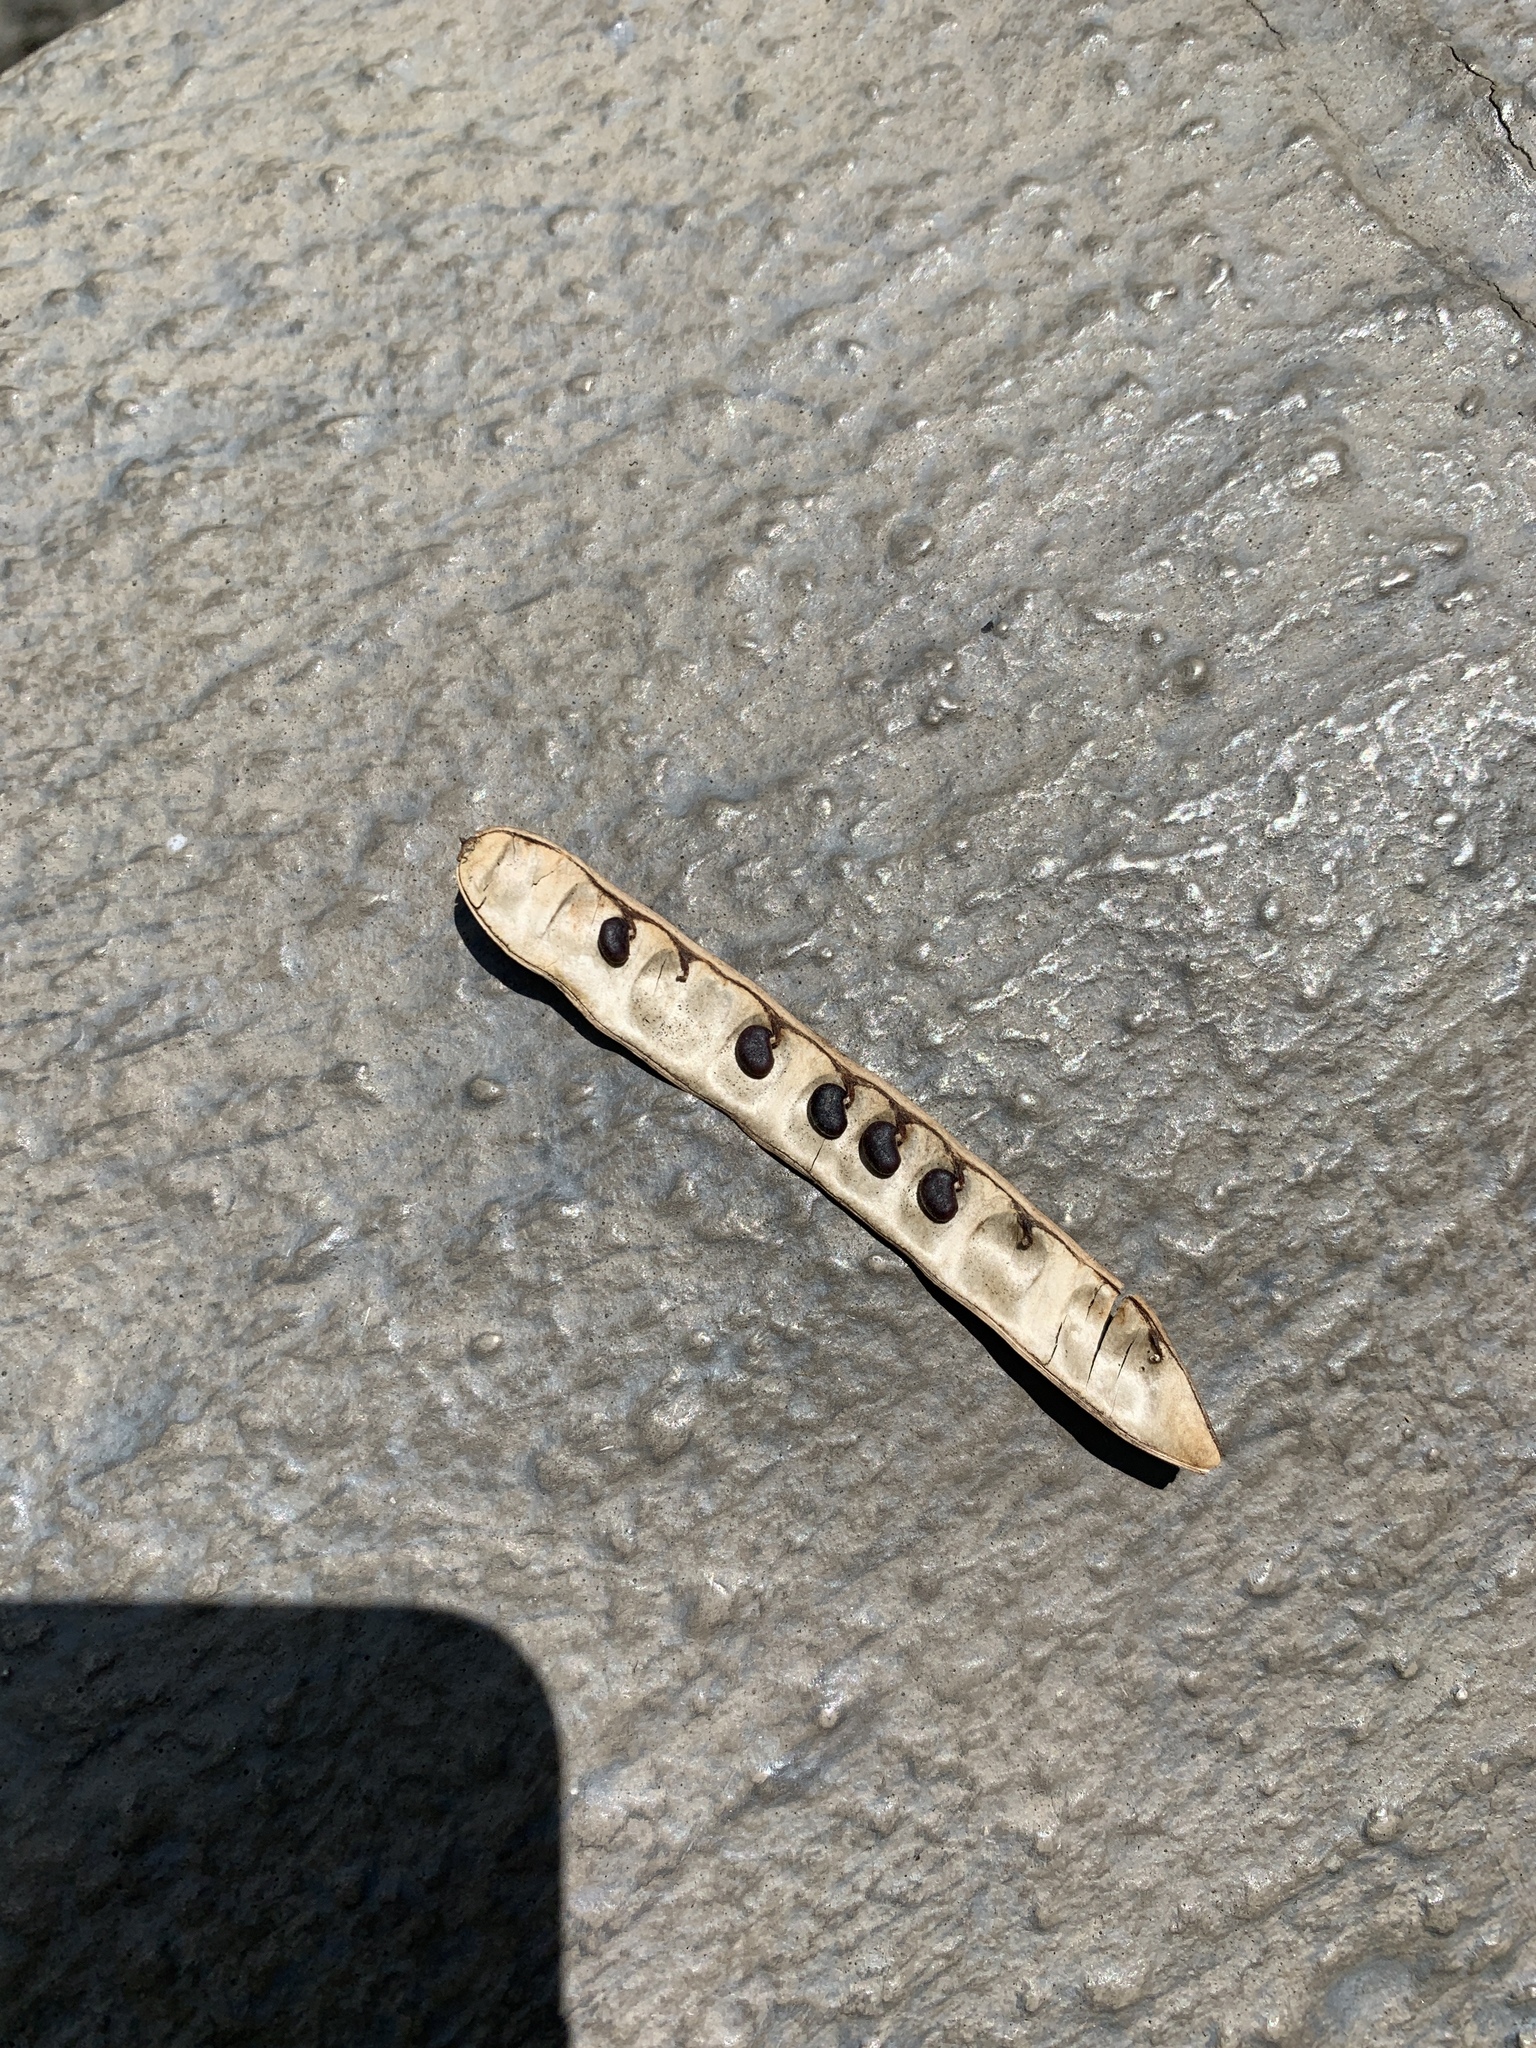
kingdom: Plantae
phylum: Tracheophyta
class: Magnoliopsida
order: Fabales
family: Fabaceae
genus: Robinia
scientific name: Robinia pseudoacacia
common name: Black locust
